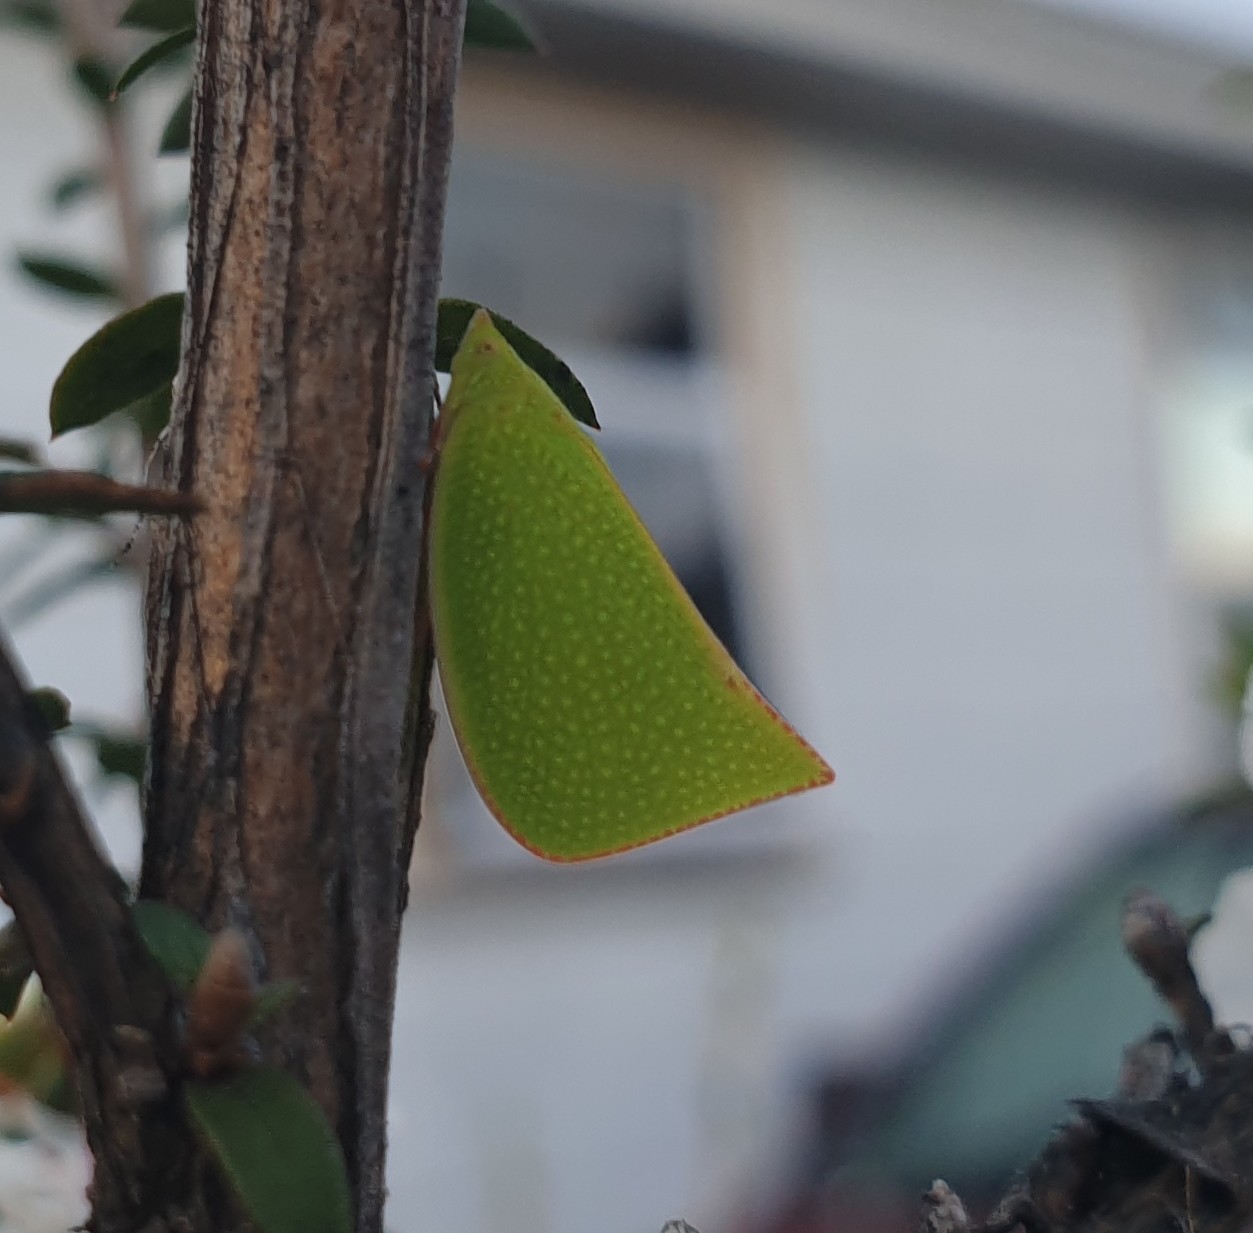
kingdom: Animalia
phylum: Arthropoda
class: Insecta
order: Hemiptera
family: Flatidae
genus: Siphanta
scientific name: Siphanta acuta
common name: Torpedo bug
